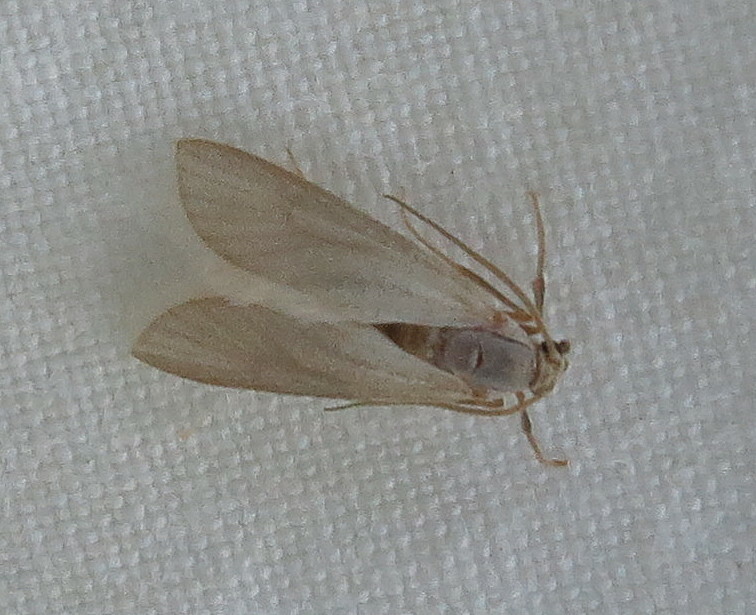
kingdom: Animalia
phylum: Arthropoda
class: Insecta
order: Lepidoptera
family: Crambidae
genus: Acentria
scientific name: Acentria ephemerella
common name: European water moth
